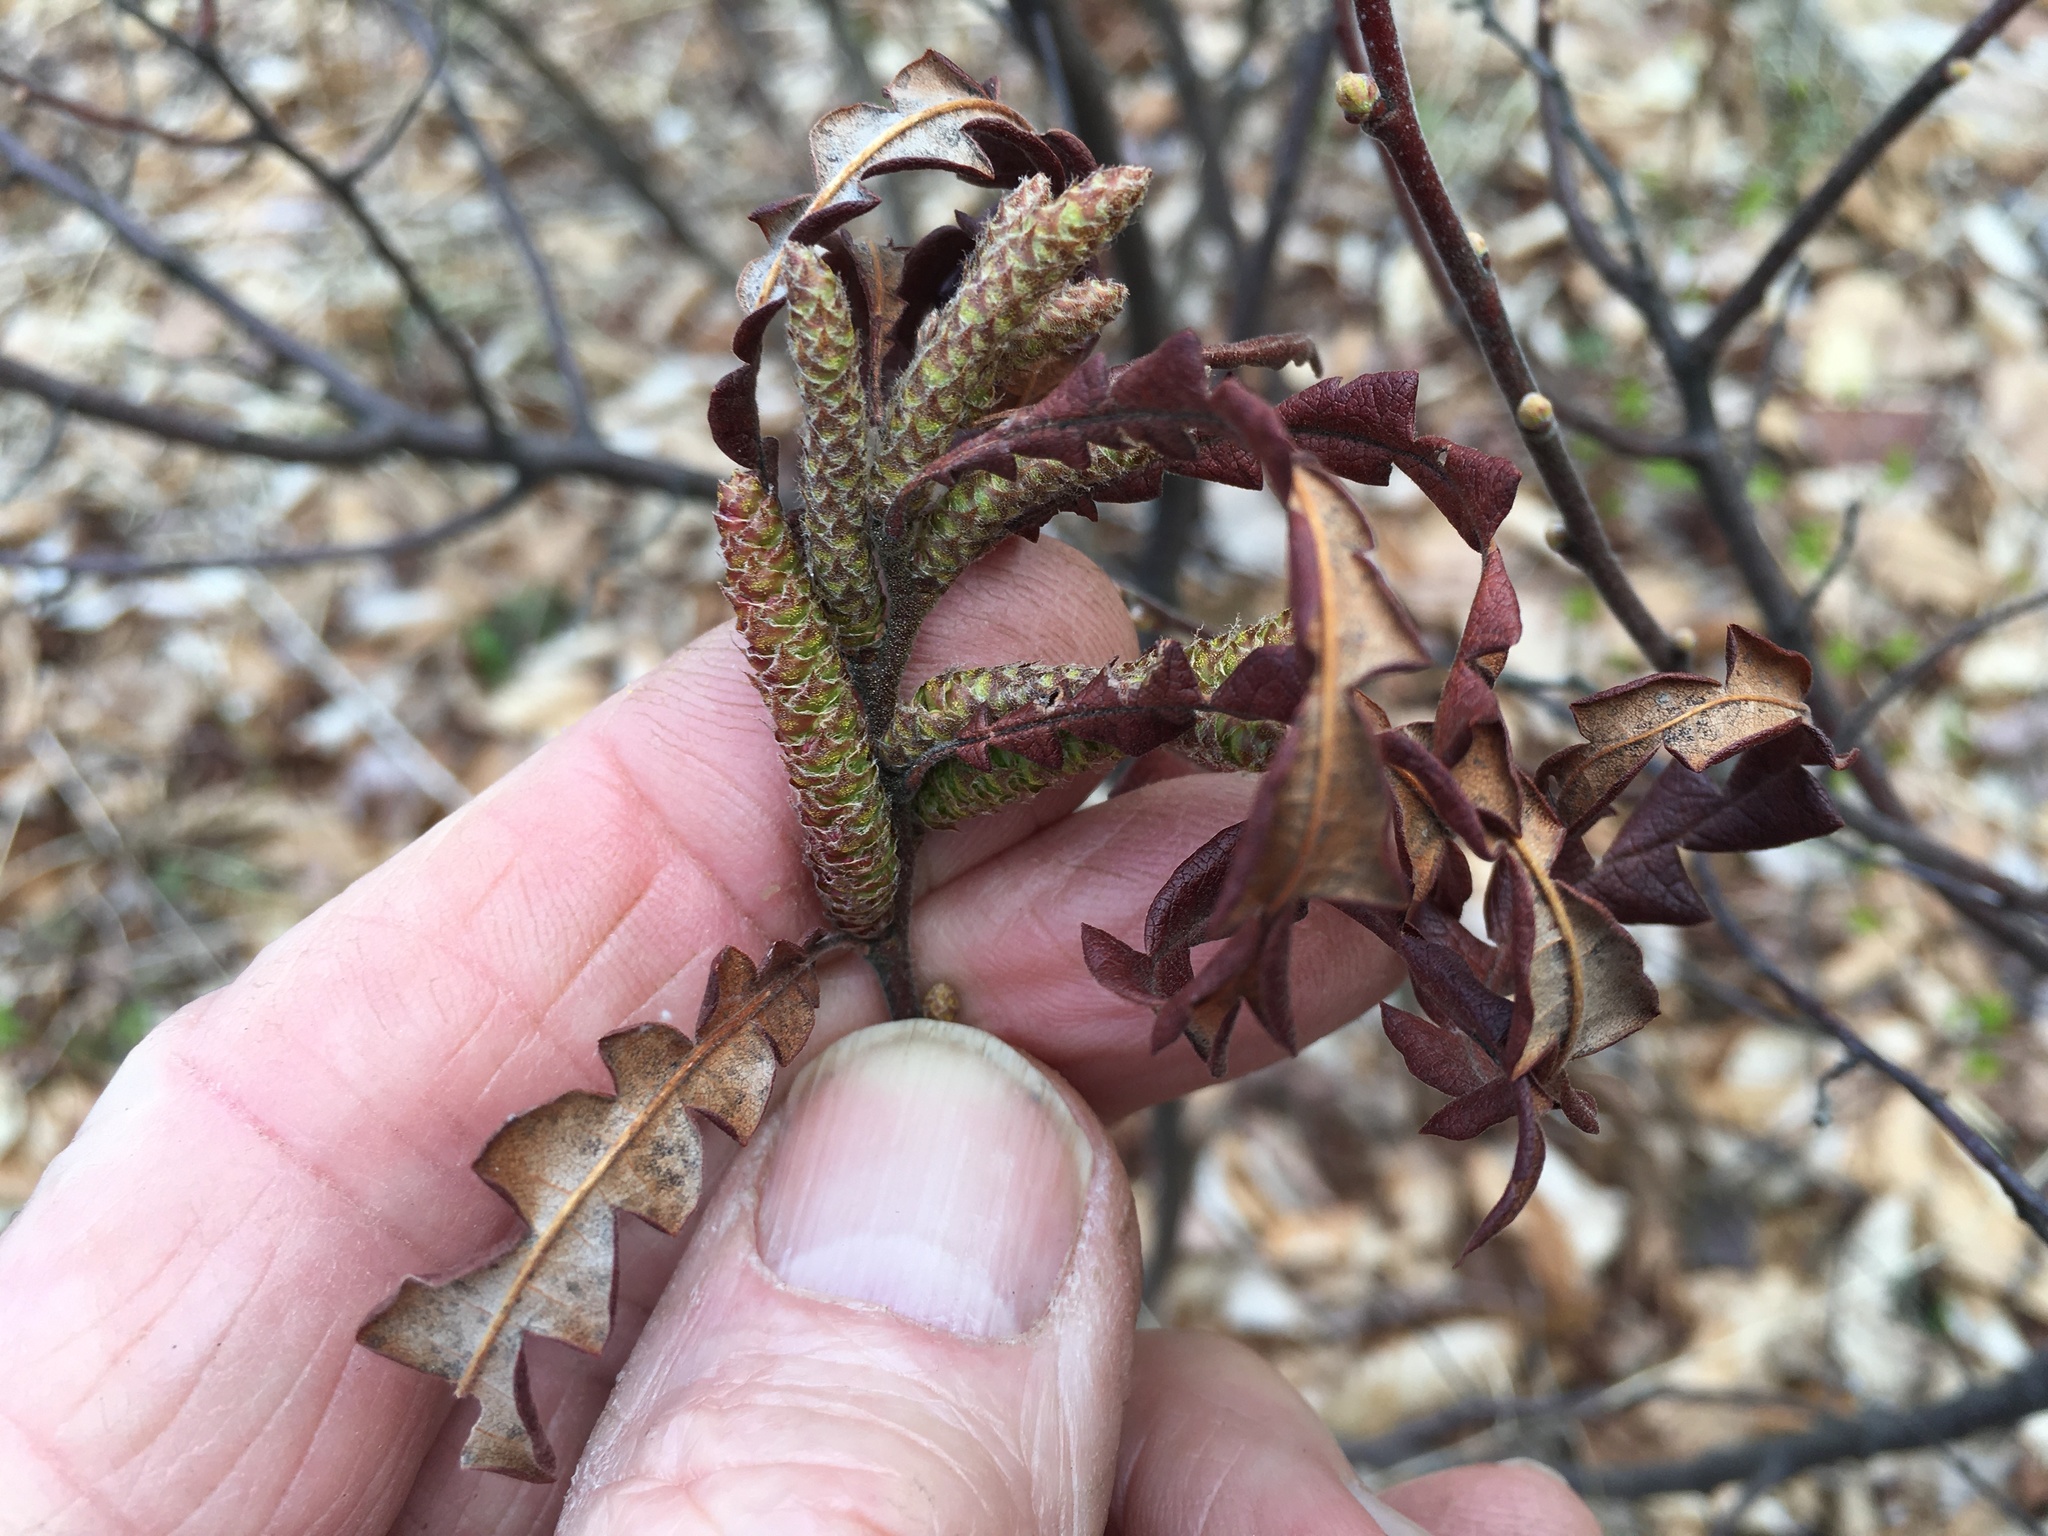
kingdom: Plantae
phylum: Tracheophyta
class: Magnoliopsida
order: Fagales
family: Myricaceae
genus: Comptonia
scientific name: Comptonia peregrina
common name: Sweet-fern
